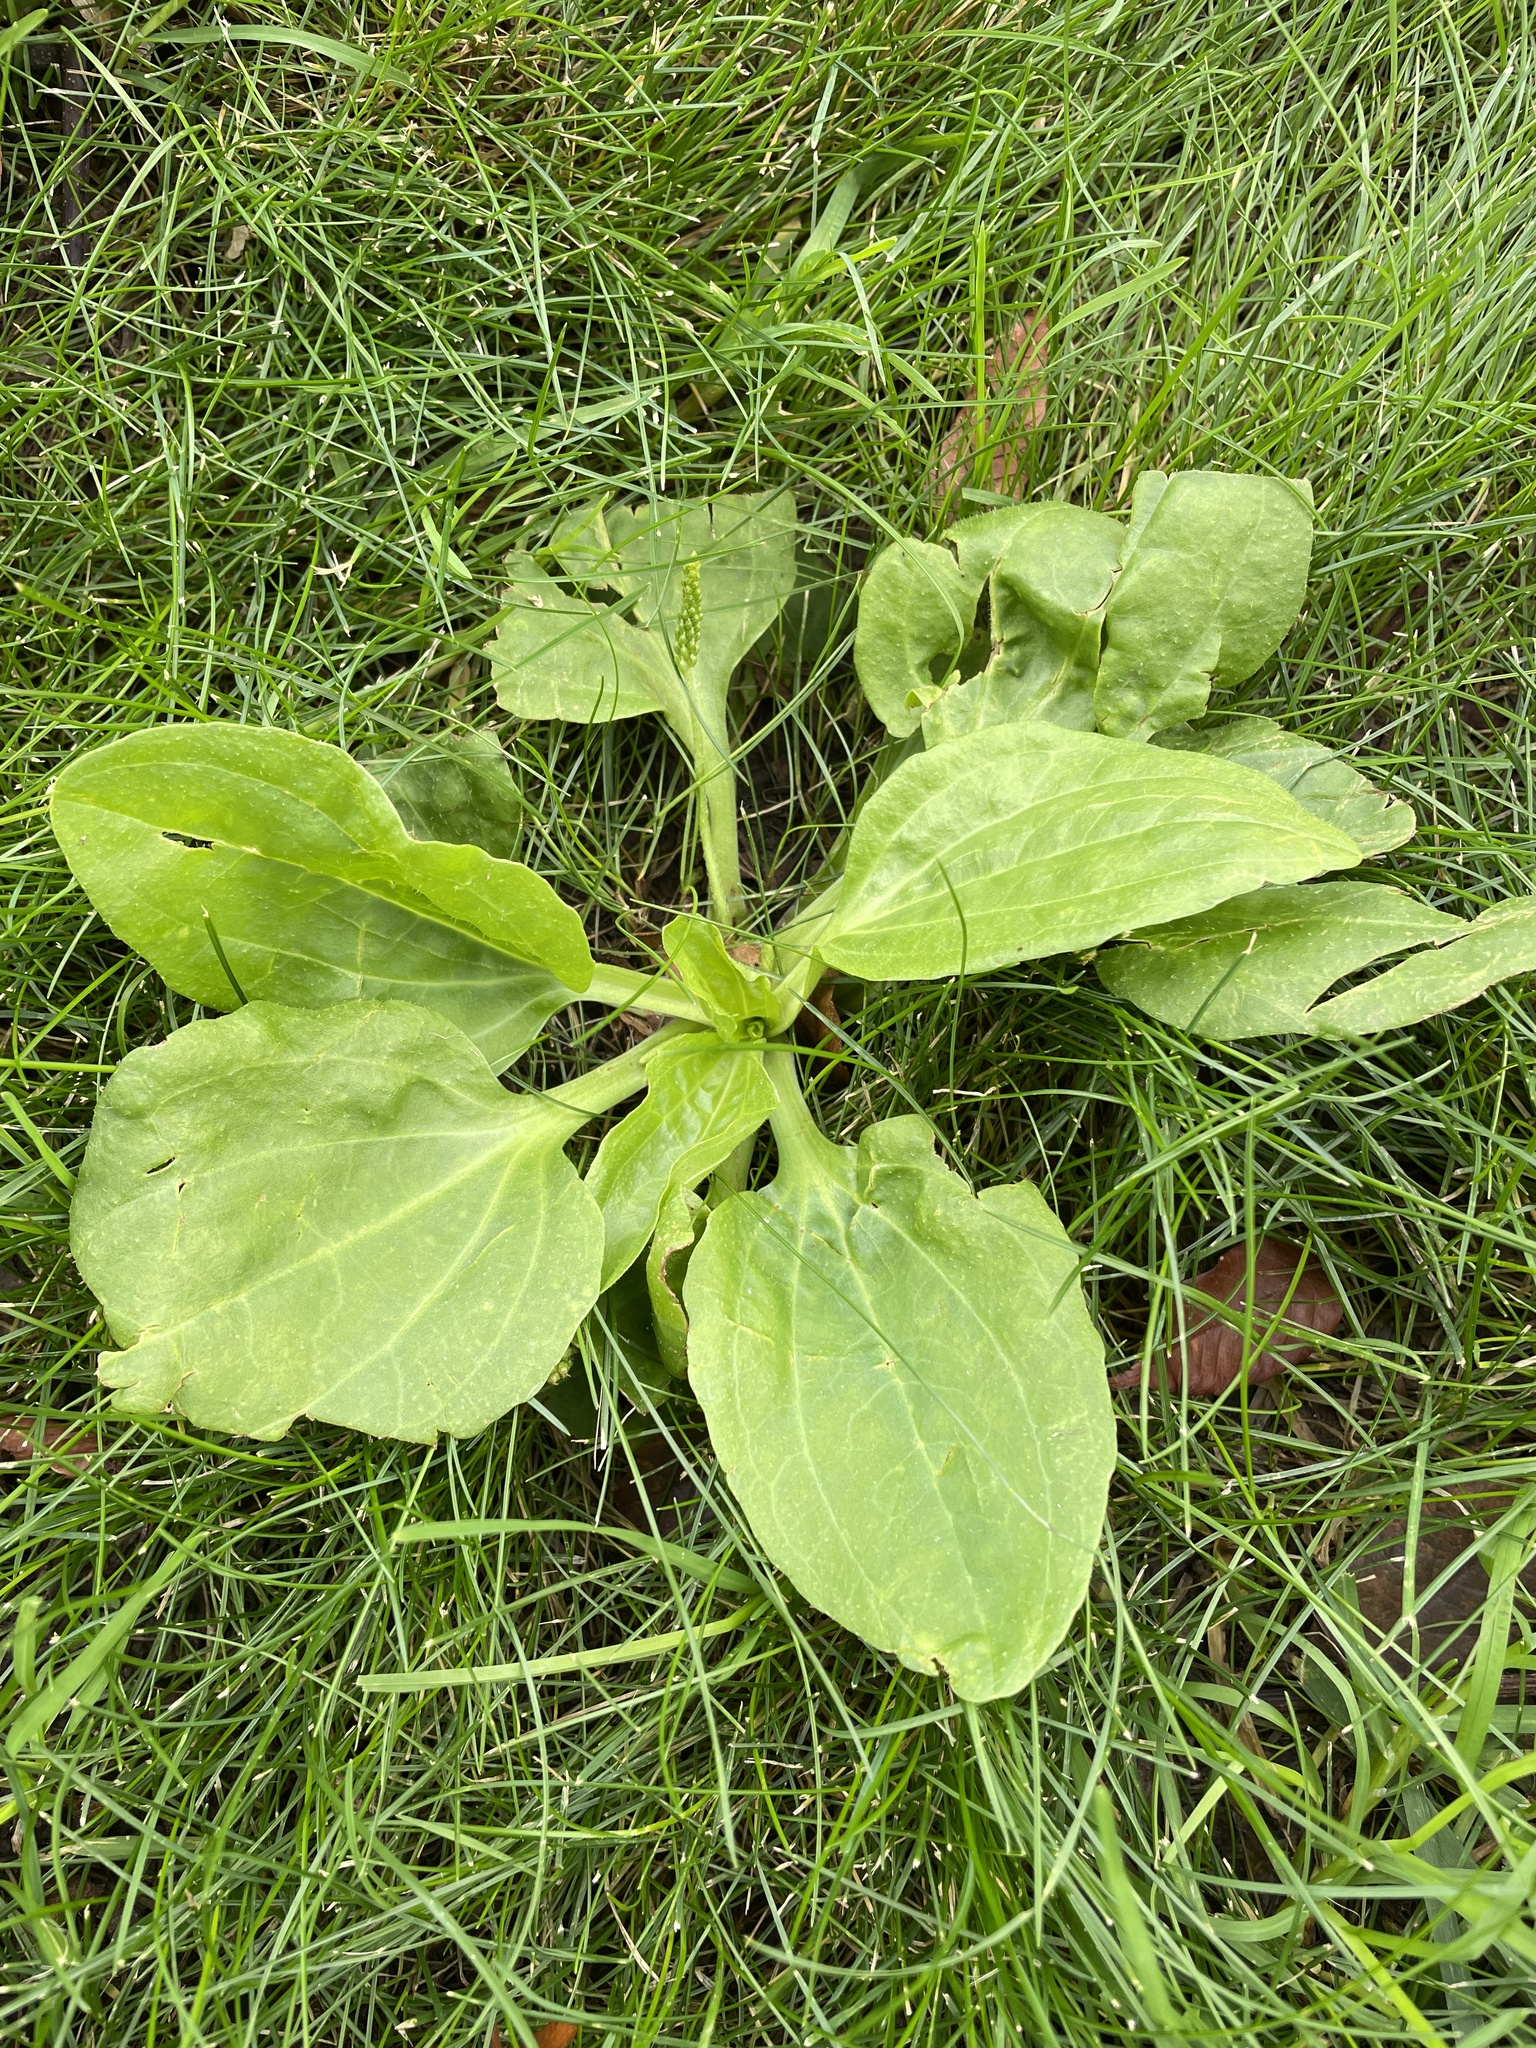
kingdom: Plantae
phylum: Tracheophyta
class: Magnoliopsida
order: Lamiales
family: Plantaginaceae
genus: Plantago
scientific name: Plantago major
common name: Common plantain
